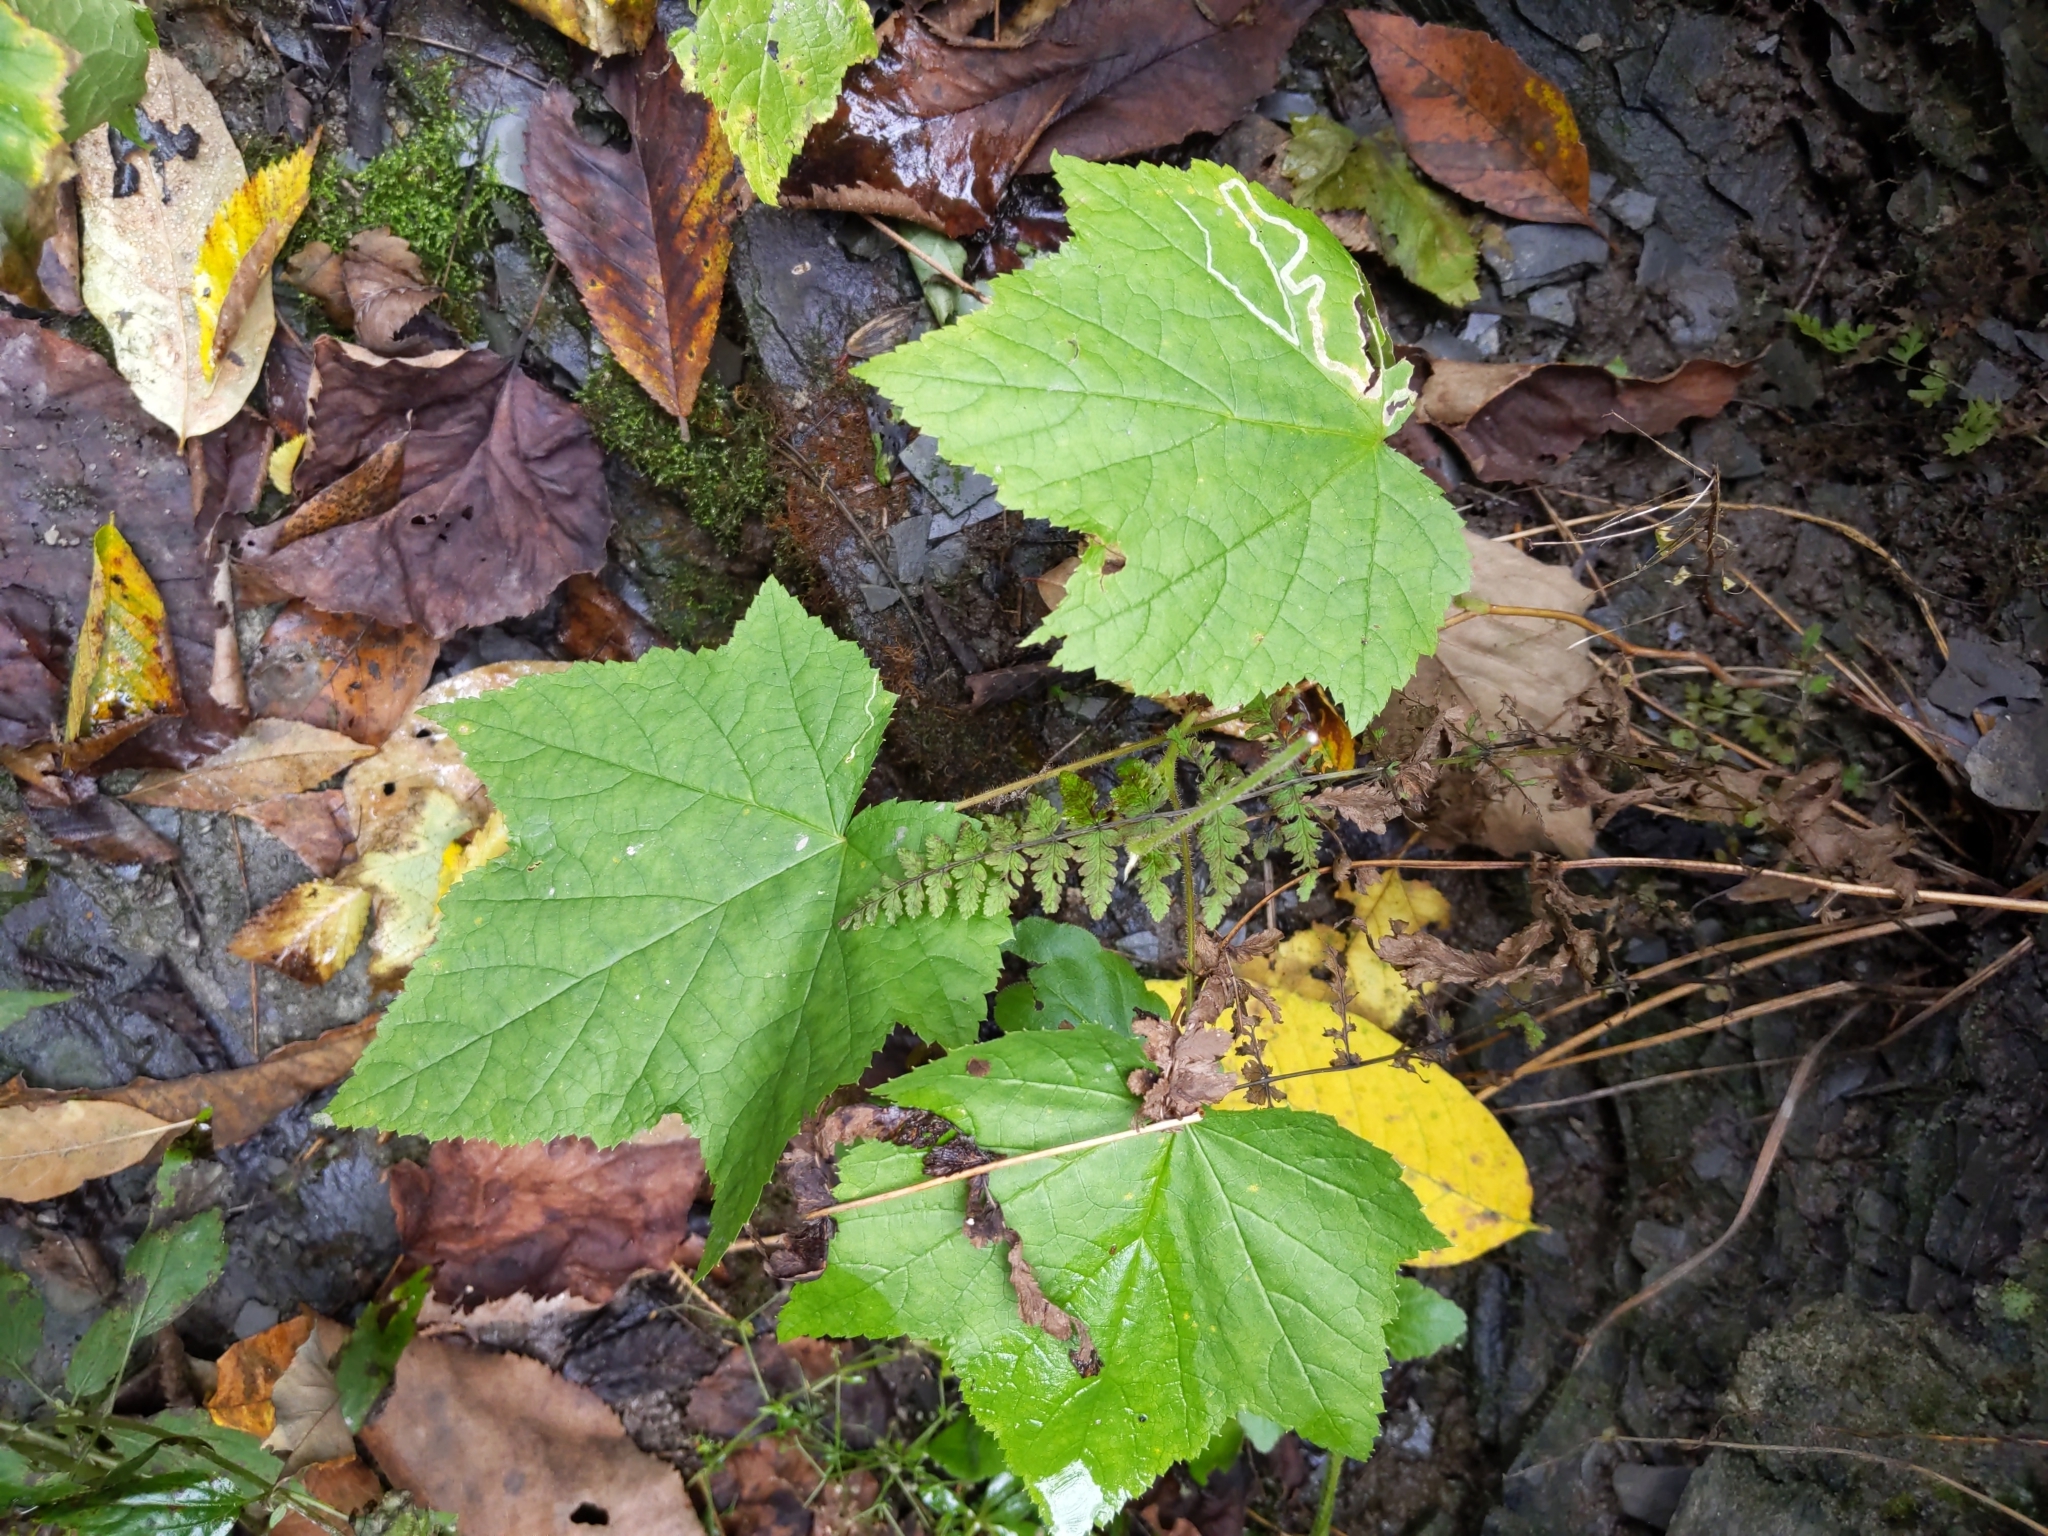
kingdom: Plantae
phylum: Tracheophyta
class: Magnoliopsida
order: Rosales
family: Rosaceae
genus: Rubus
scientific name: Rubus odoratus
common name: Purple-flowered raspberry
